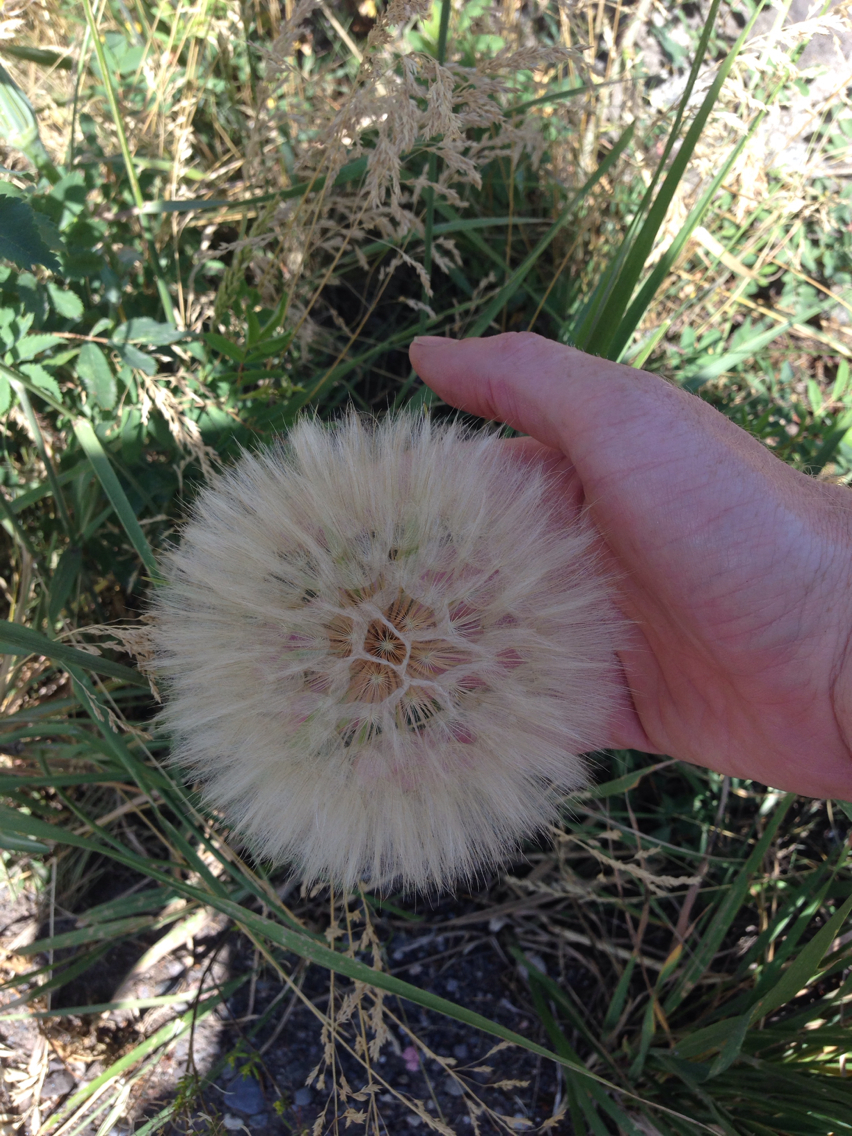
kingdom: Plantae
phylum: Tracheophyta
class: Magnoliopsida
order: Asterales
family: Asteraceae
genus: Tragopogon
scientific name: Tragopogon dubius
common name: Yellow salsify
